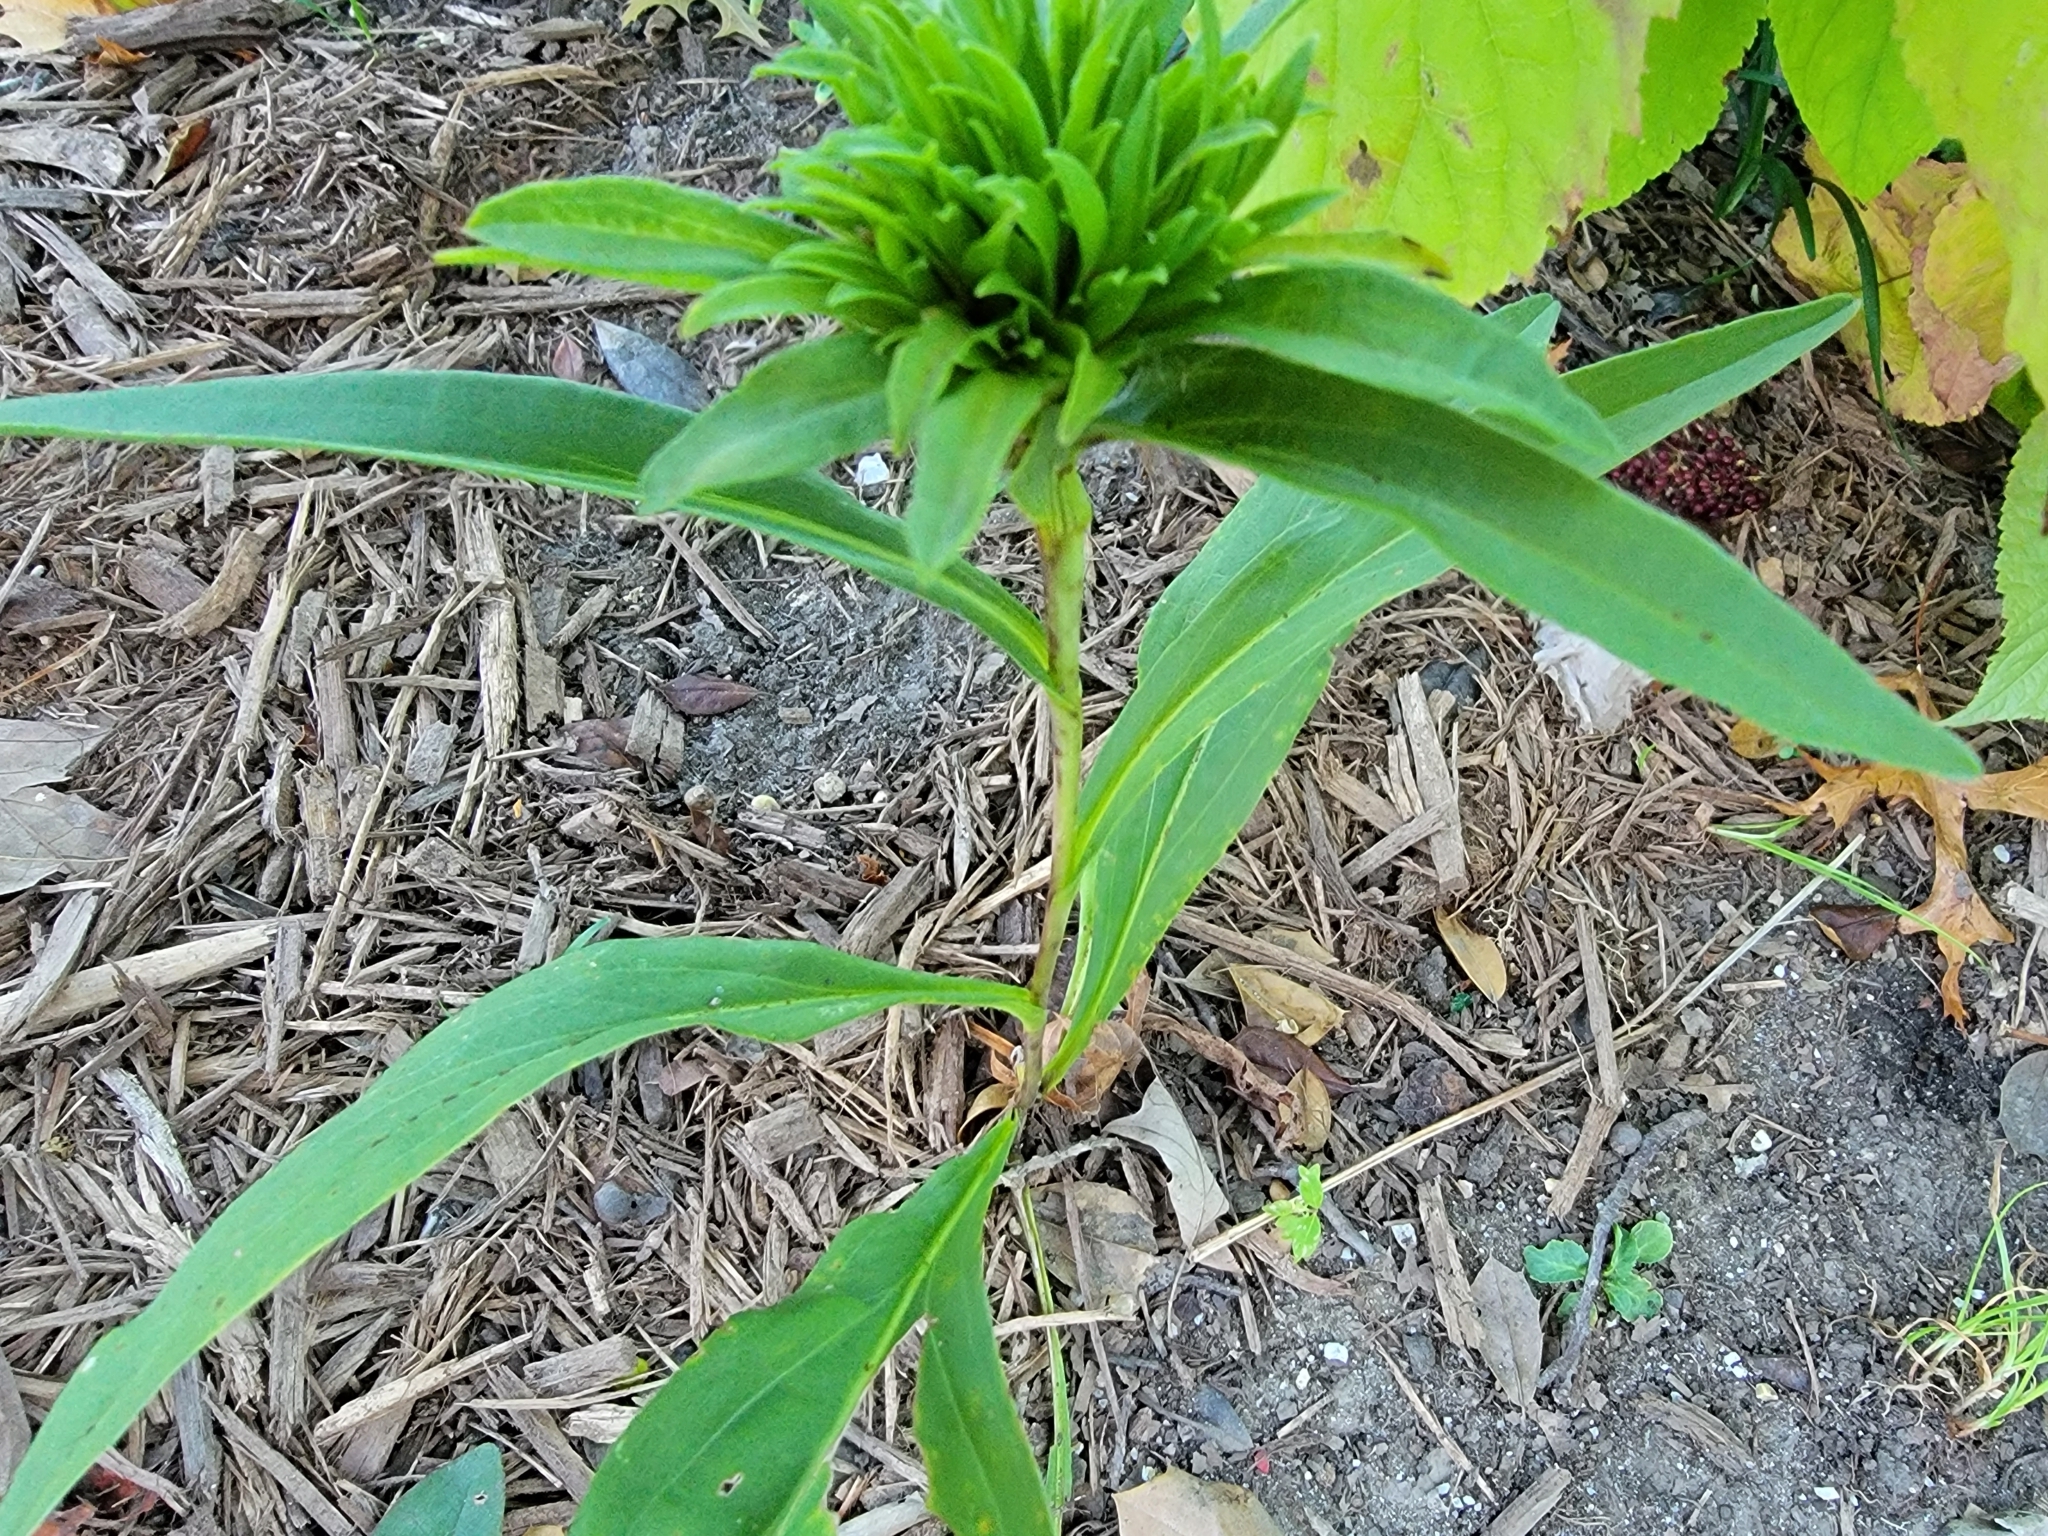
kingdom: Animalia
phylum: Arthropoda
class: Insecta
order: Diptera
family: Cecidomyiidae
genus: Rhopalomyia
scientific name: Rhopalomyia solidaginis
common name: Goldenrod bunch gall midge
